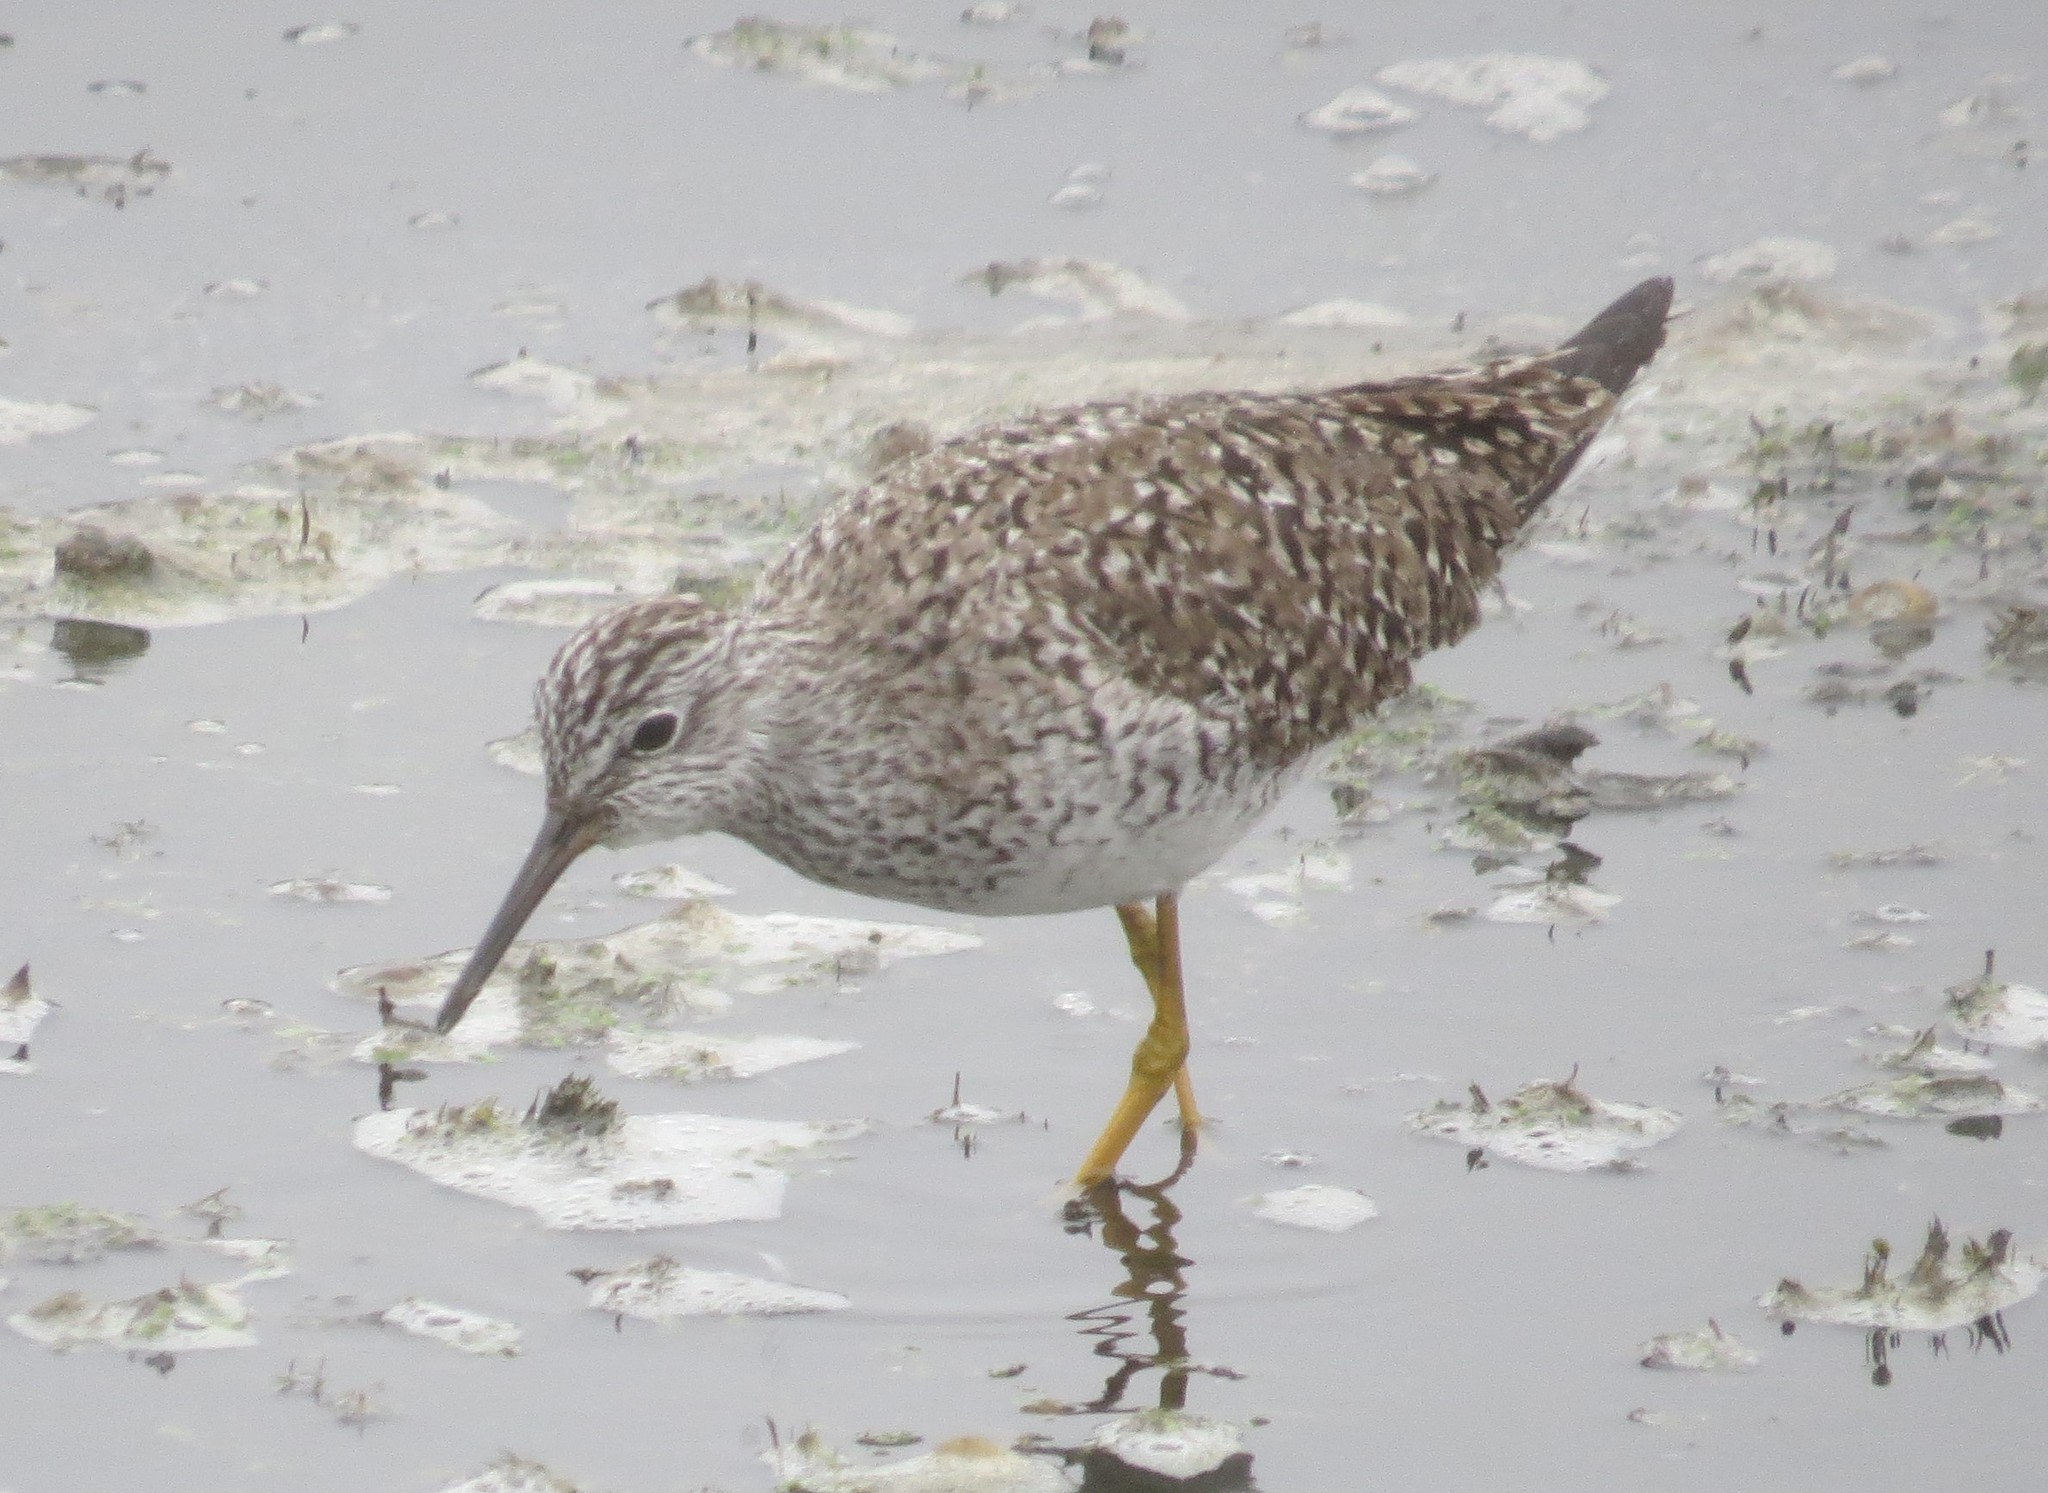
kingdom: Animalia
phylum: Chordata
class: Aves
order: Charadriiformes
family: Scolopacidae
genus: Tringa
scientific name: Tringa flavipes
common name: Lesser yellowlegs
